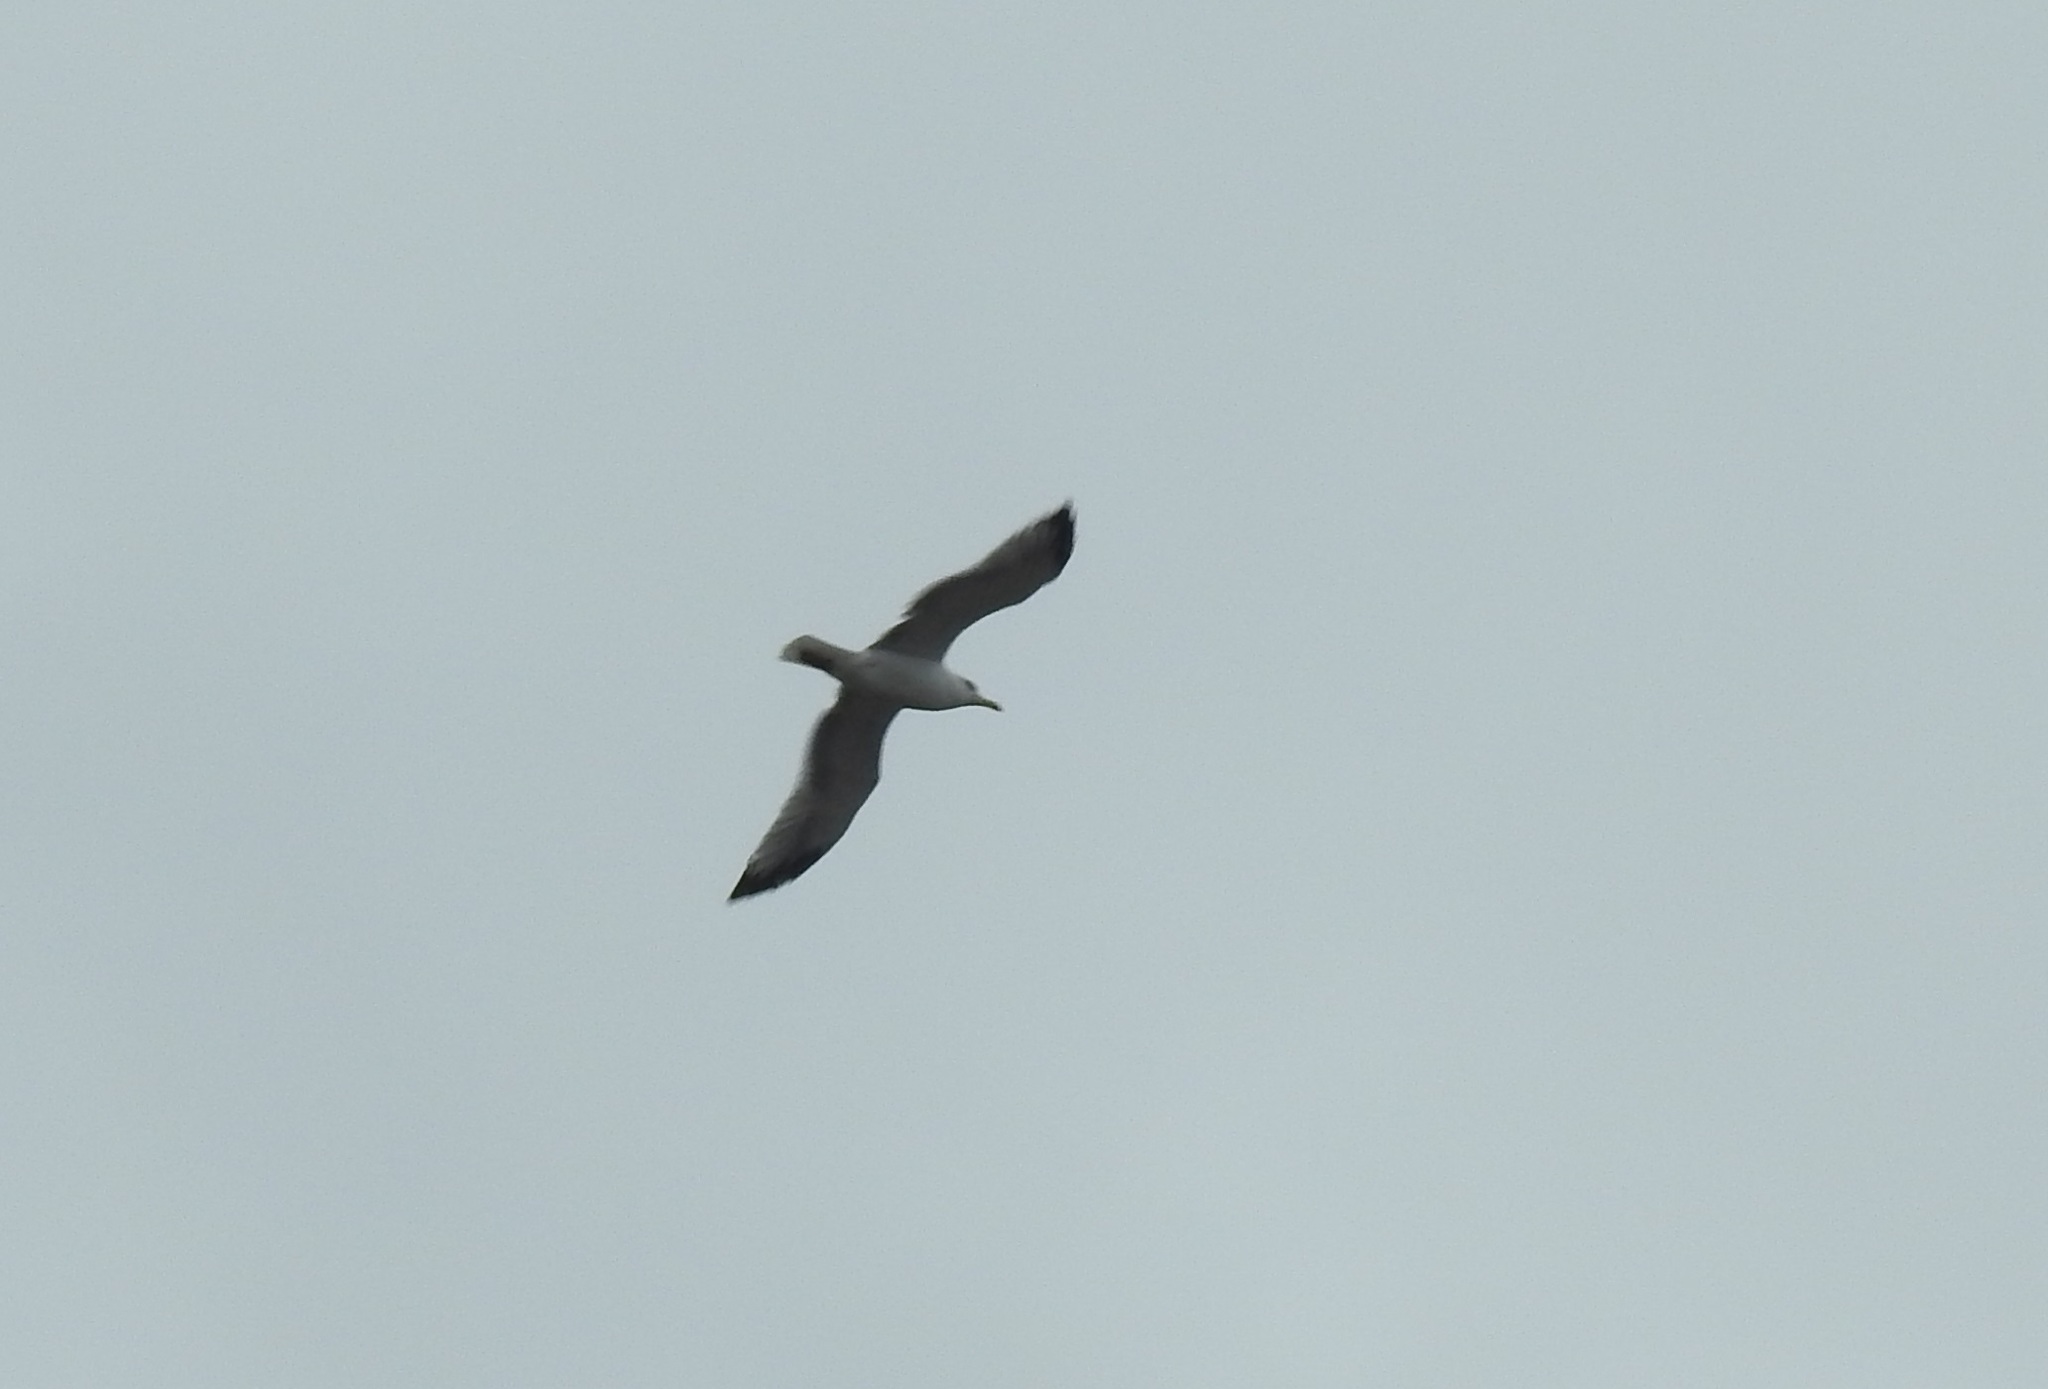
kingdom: Animalia
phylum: Chordata
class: Aves
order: Charadriiformes
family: Laridae
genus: Larus
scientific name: Larus cachinnans
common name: Caspian gull
